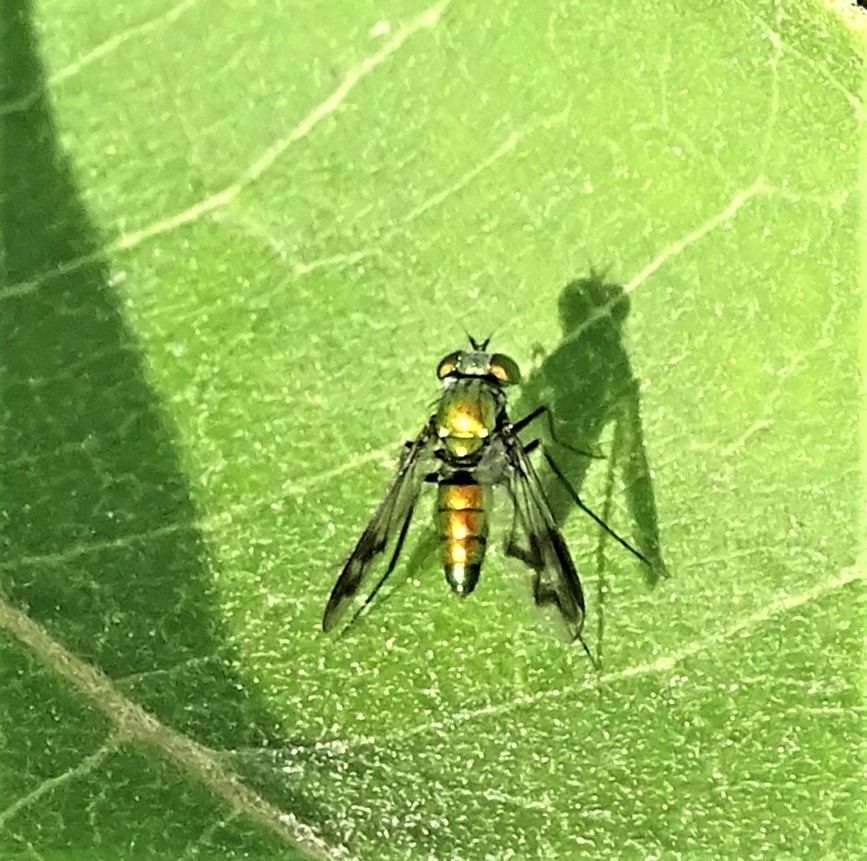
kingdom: Animalia
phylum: Arthropoda
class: Insecta
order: Diptera
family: Dolichopodidae
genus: Condylostylus
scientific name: Condylostylus patibulatus
